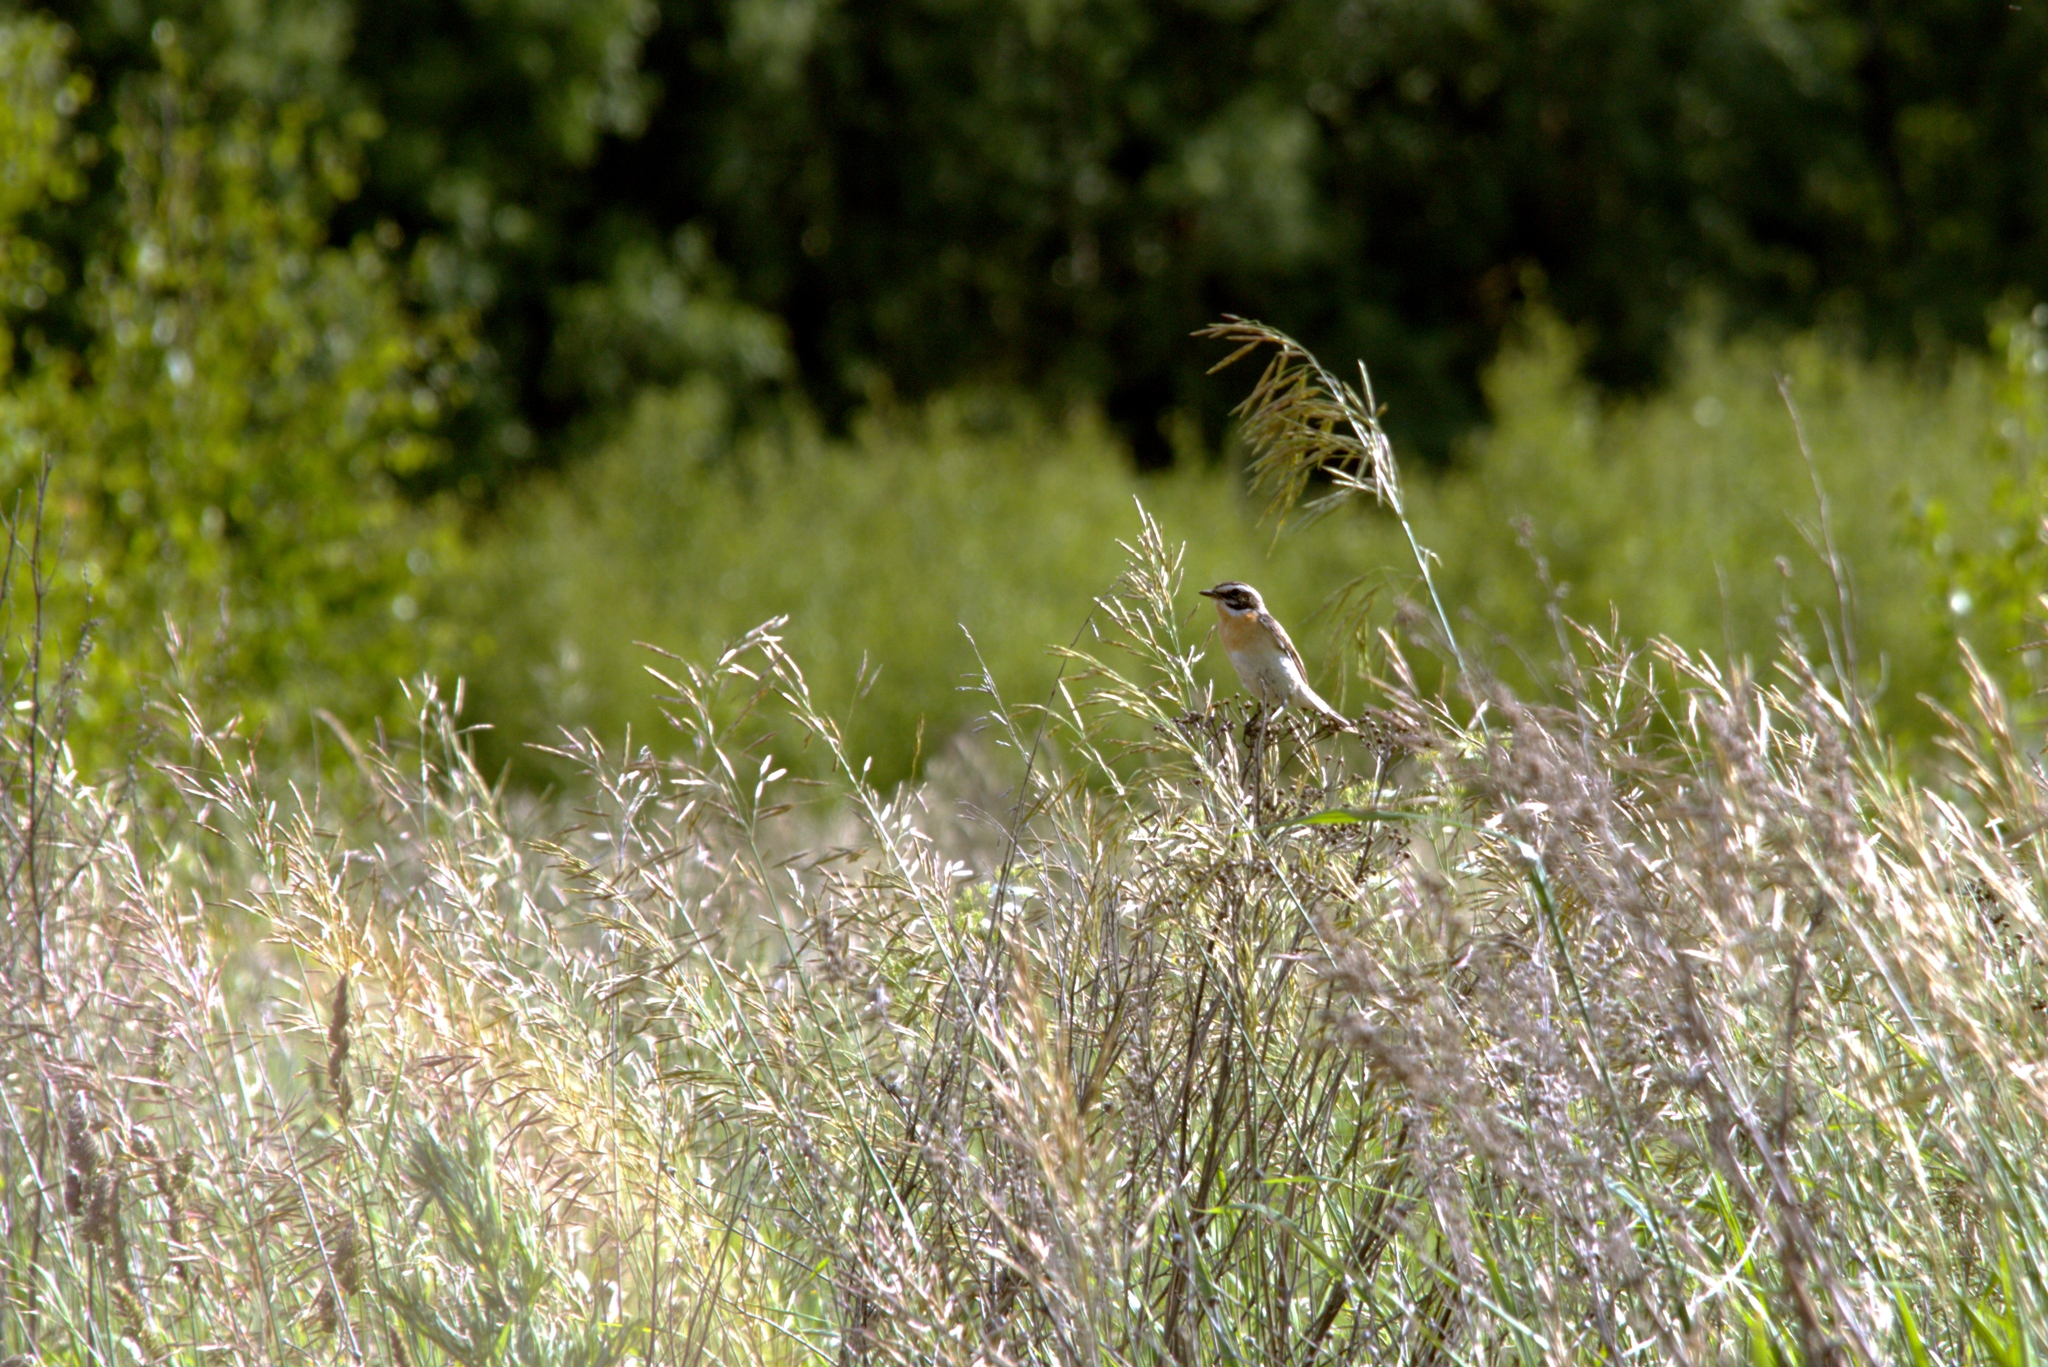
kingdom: Animalia
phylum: Chordata
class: Aves
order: Passeriformes
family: Muscicapidae
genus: Saxicola
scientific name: Saxicola rubetra
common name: Whinchat
